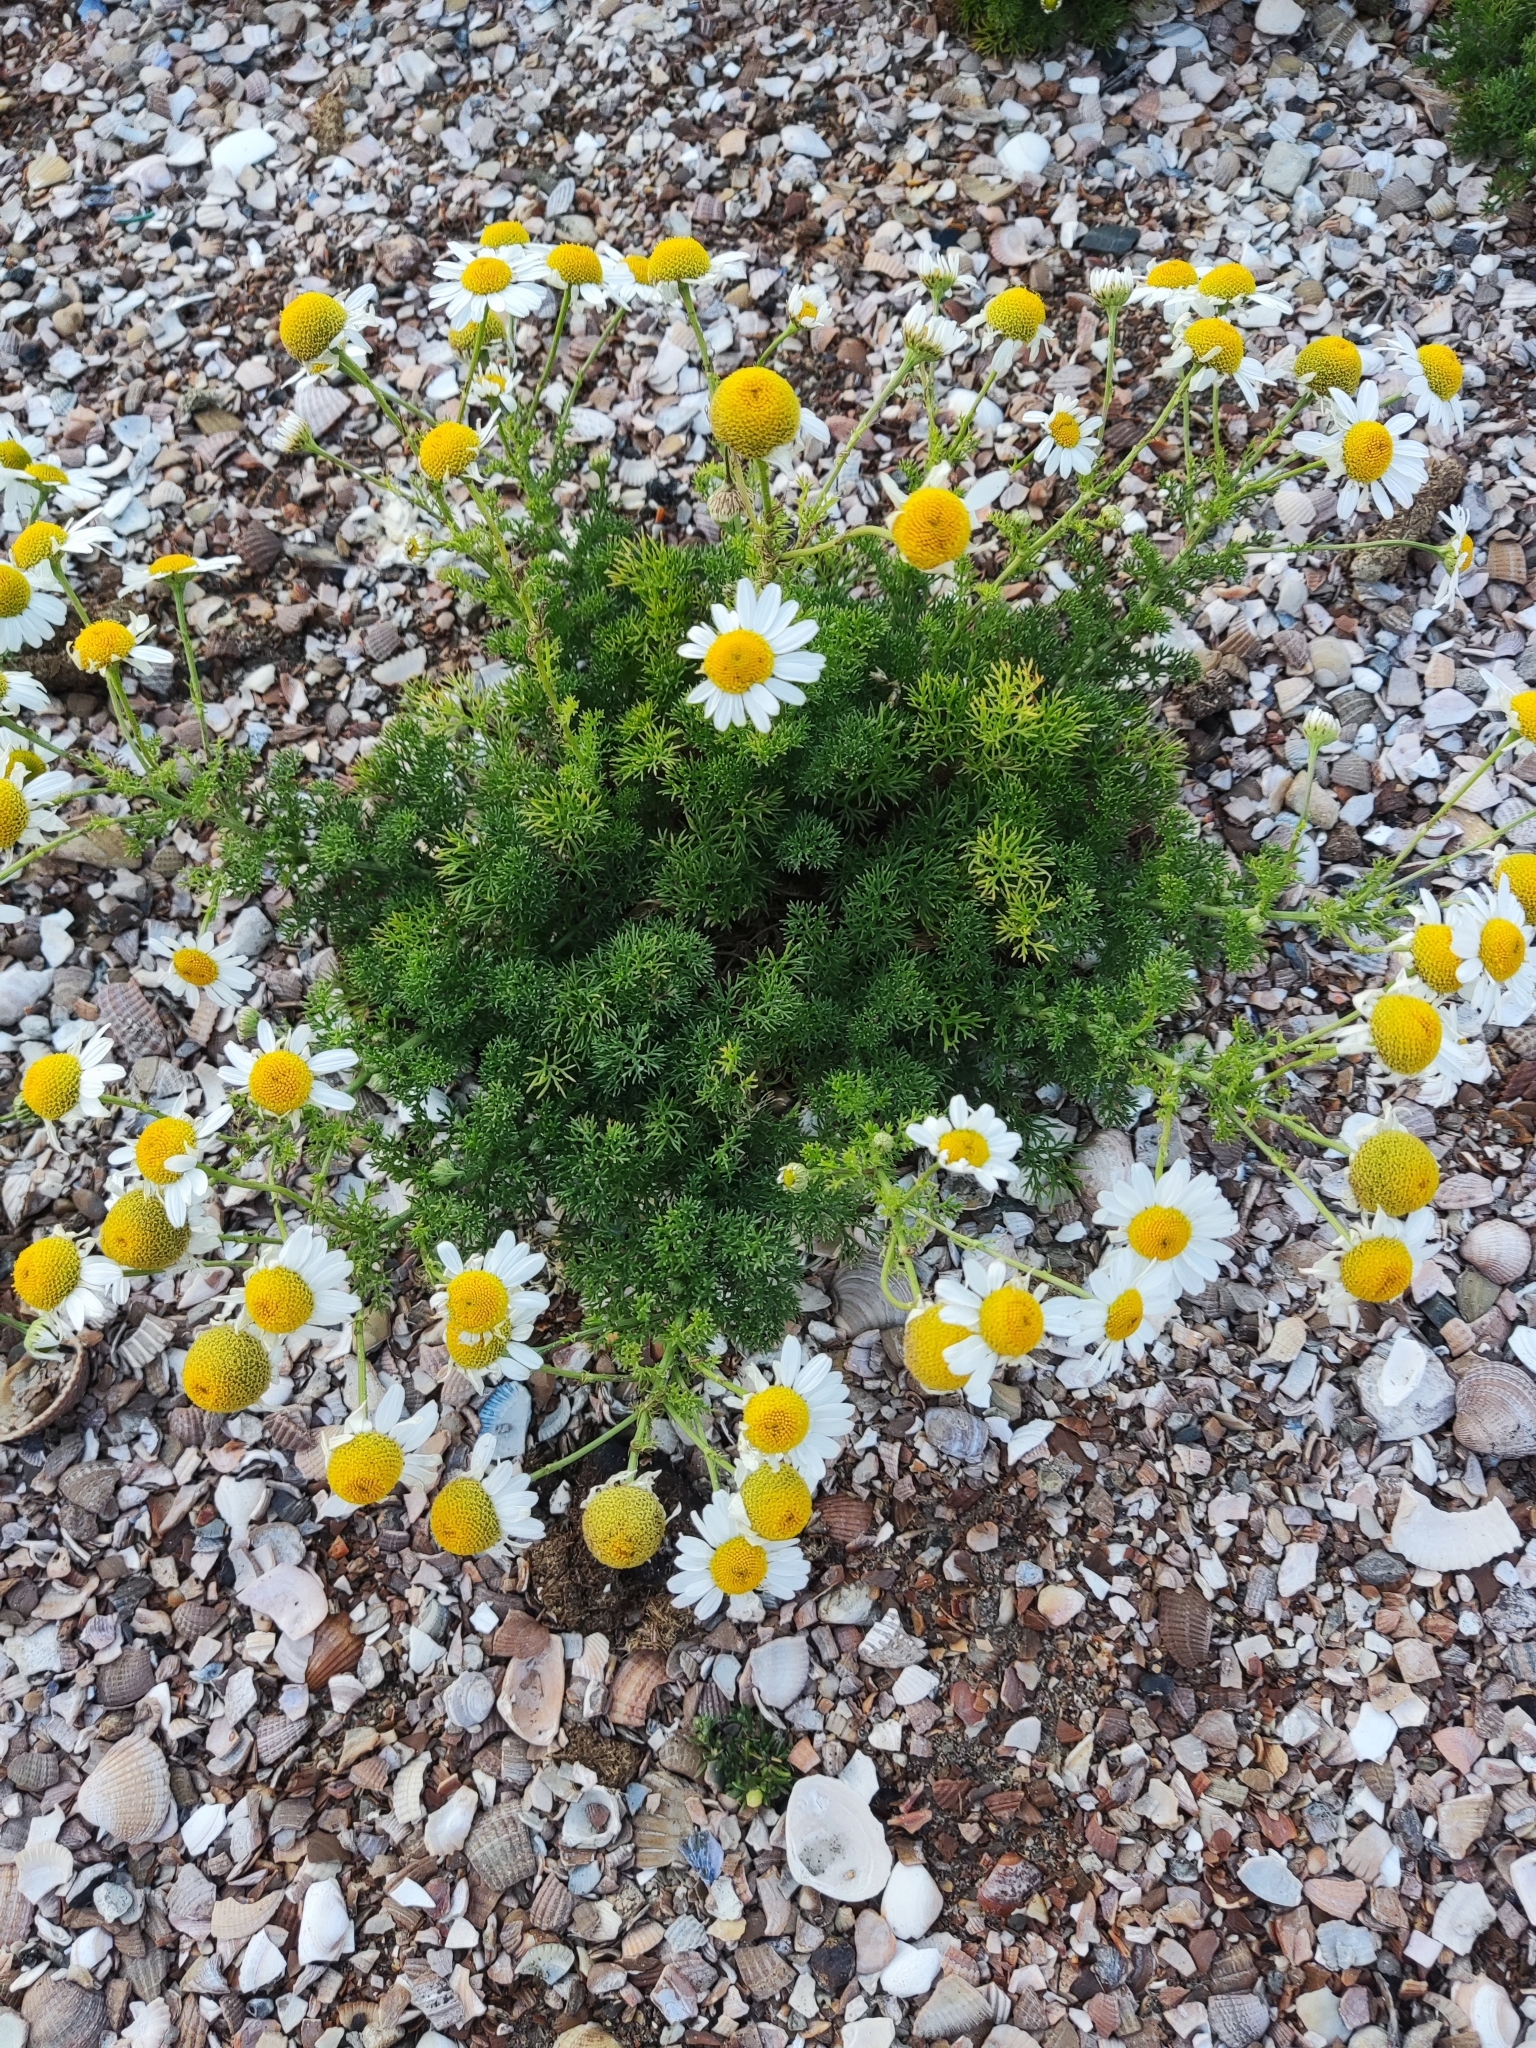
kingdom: Plantae
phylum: Tracheophyta
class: Magnoliopsida
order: Asterales
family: Asteraceae
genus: Tripleurospermum
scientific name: Tripleurospermum maritimum
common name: Sea mayweed
